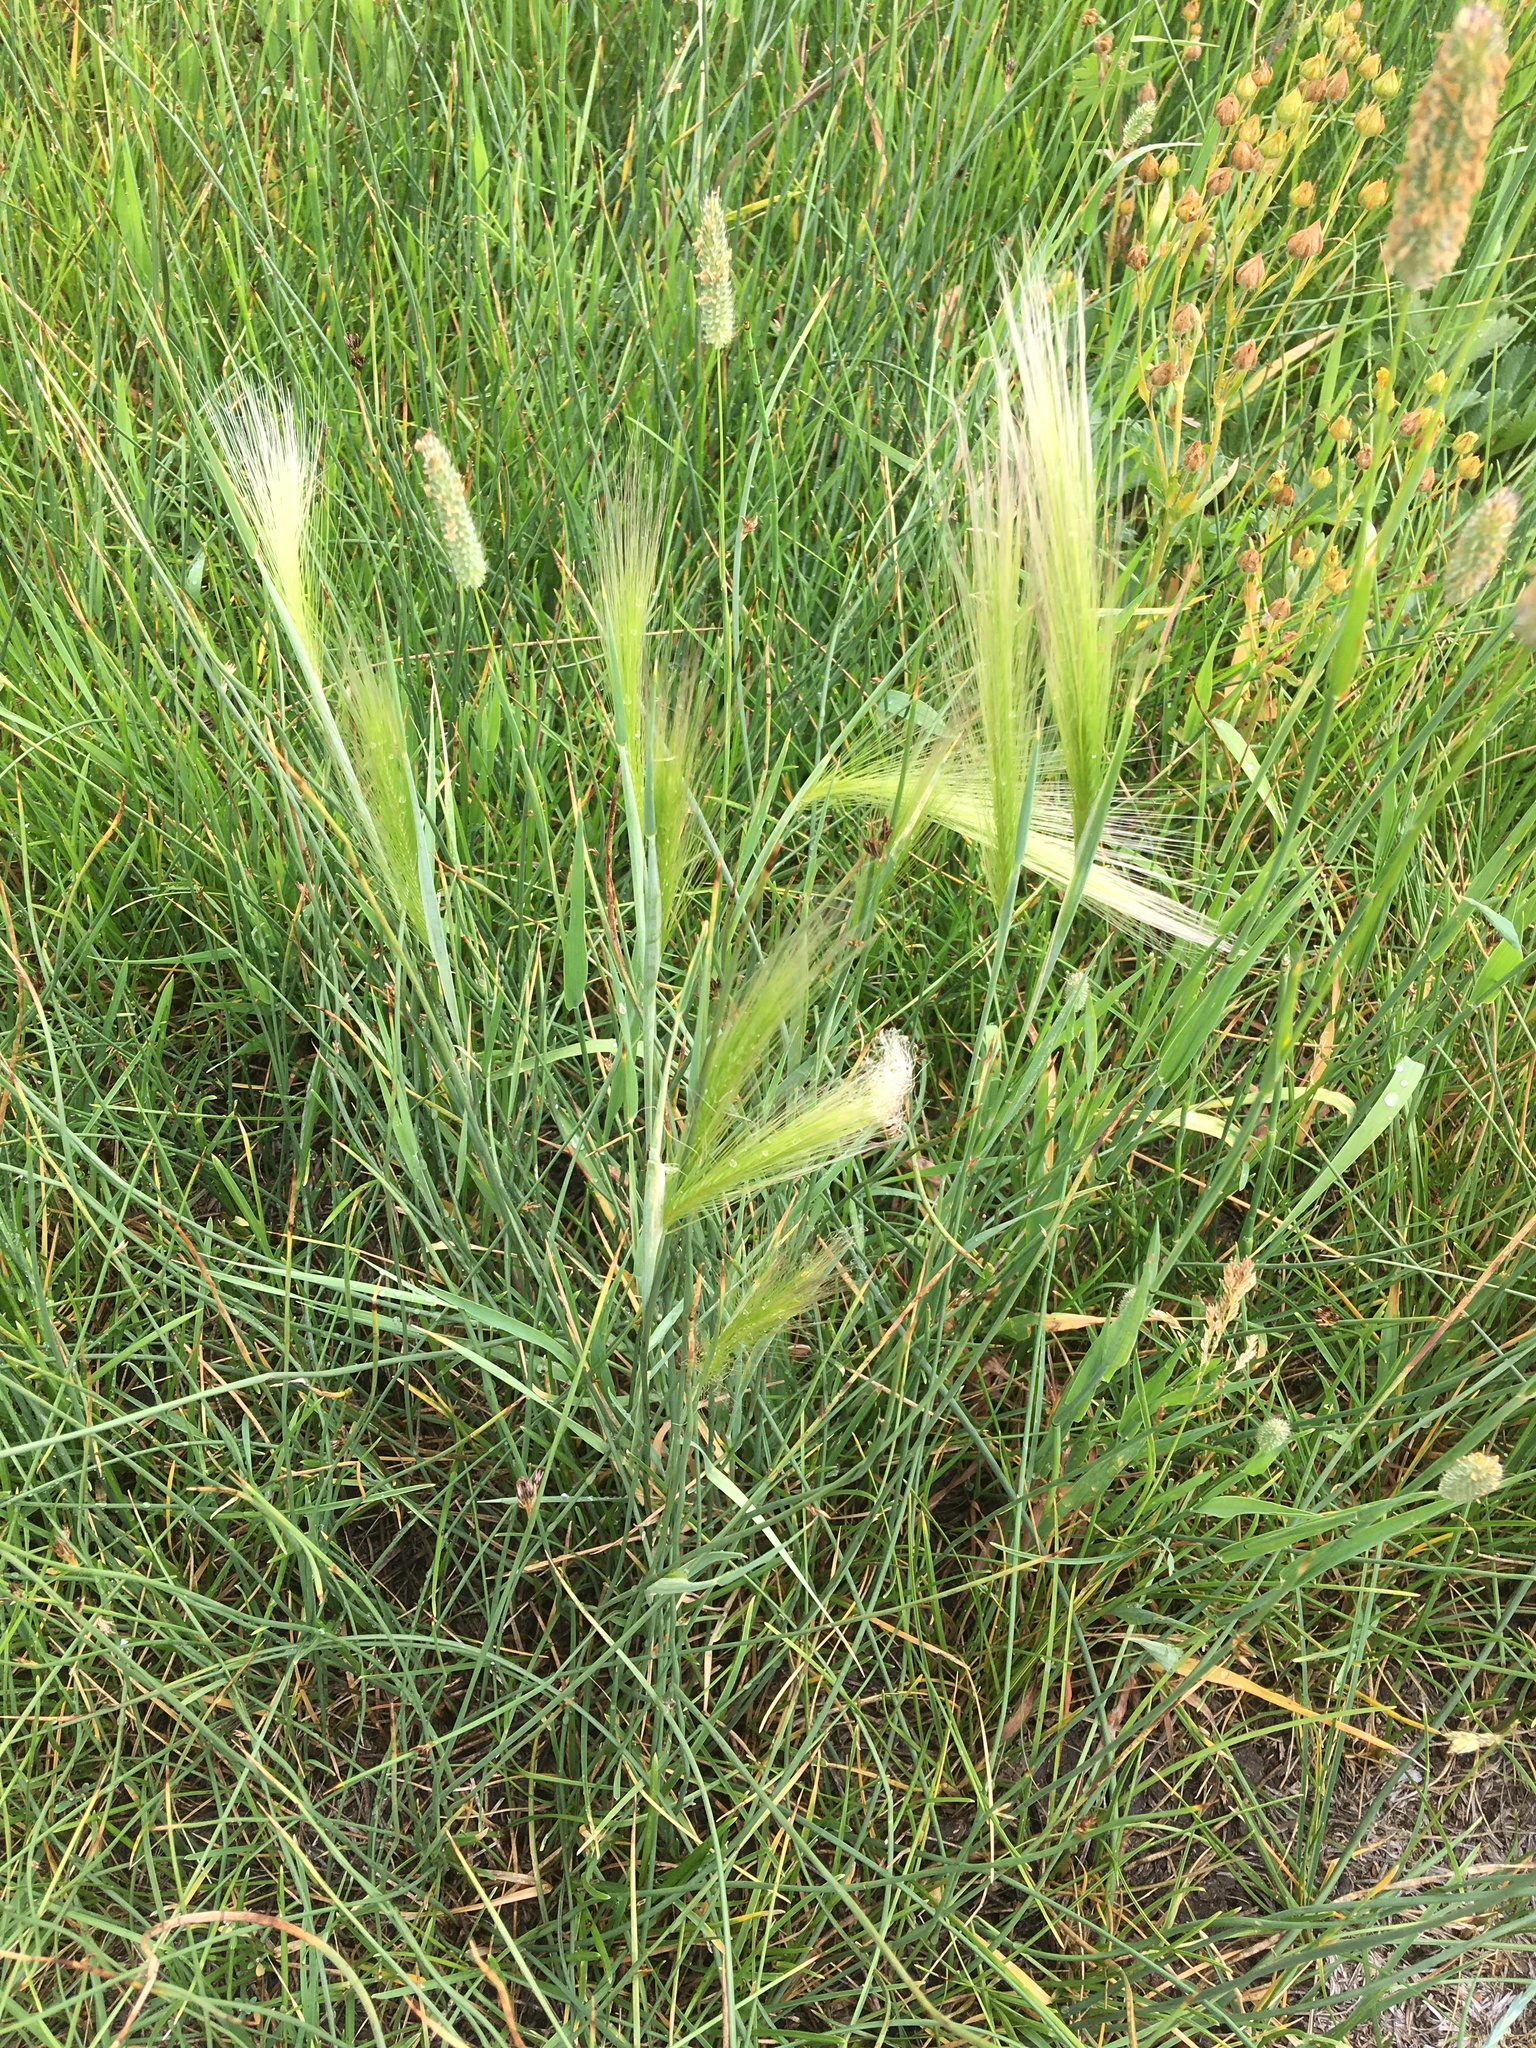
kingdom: Plantae
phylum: Tracheophyta
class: Liliopsida
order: Poales
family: Poaceae
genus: Hordeum
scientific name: Hordeum jubatum
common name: Foxtail barley
